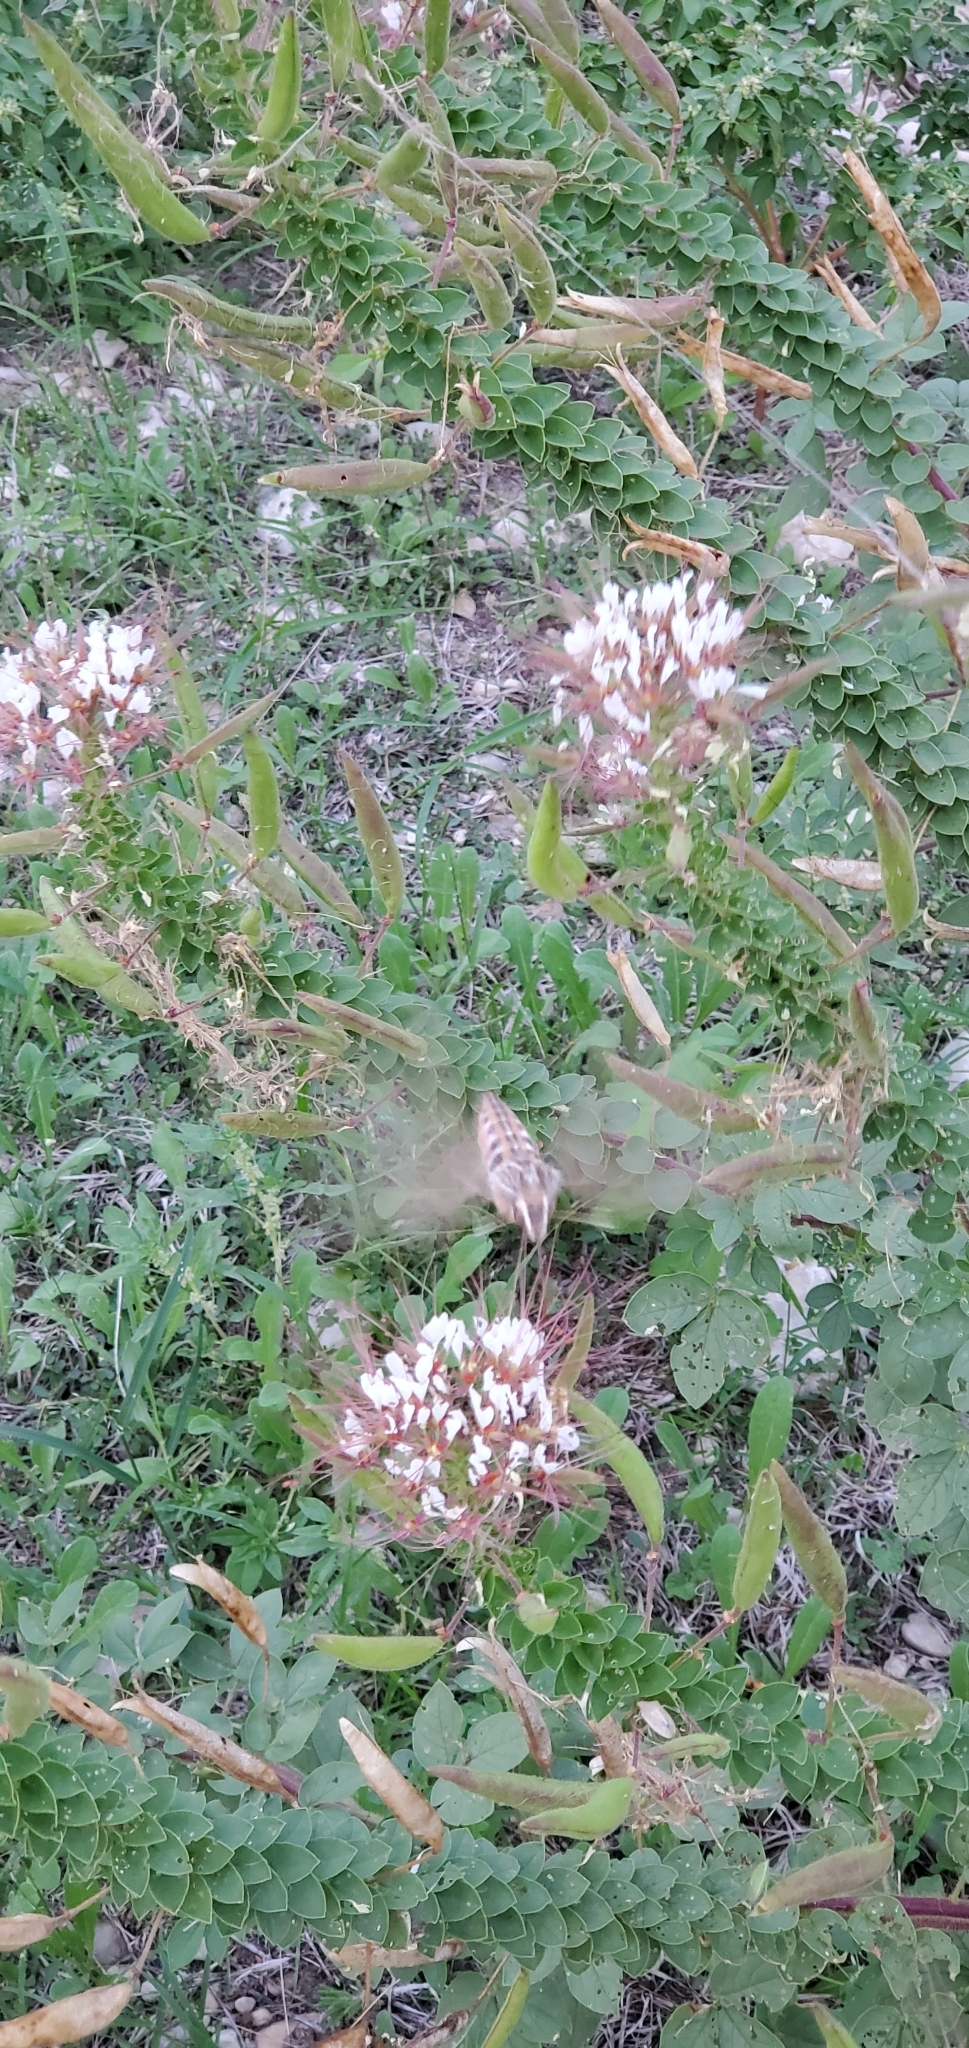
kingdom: Animalia
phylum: Arthropoda
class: Insecta
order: Lepidoptera
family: Sphingidae
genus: Hyles
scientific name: Hyles lineata
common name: White-lined sphinx
